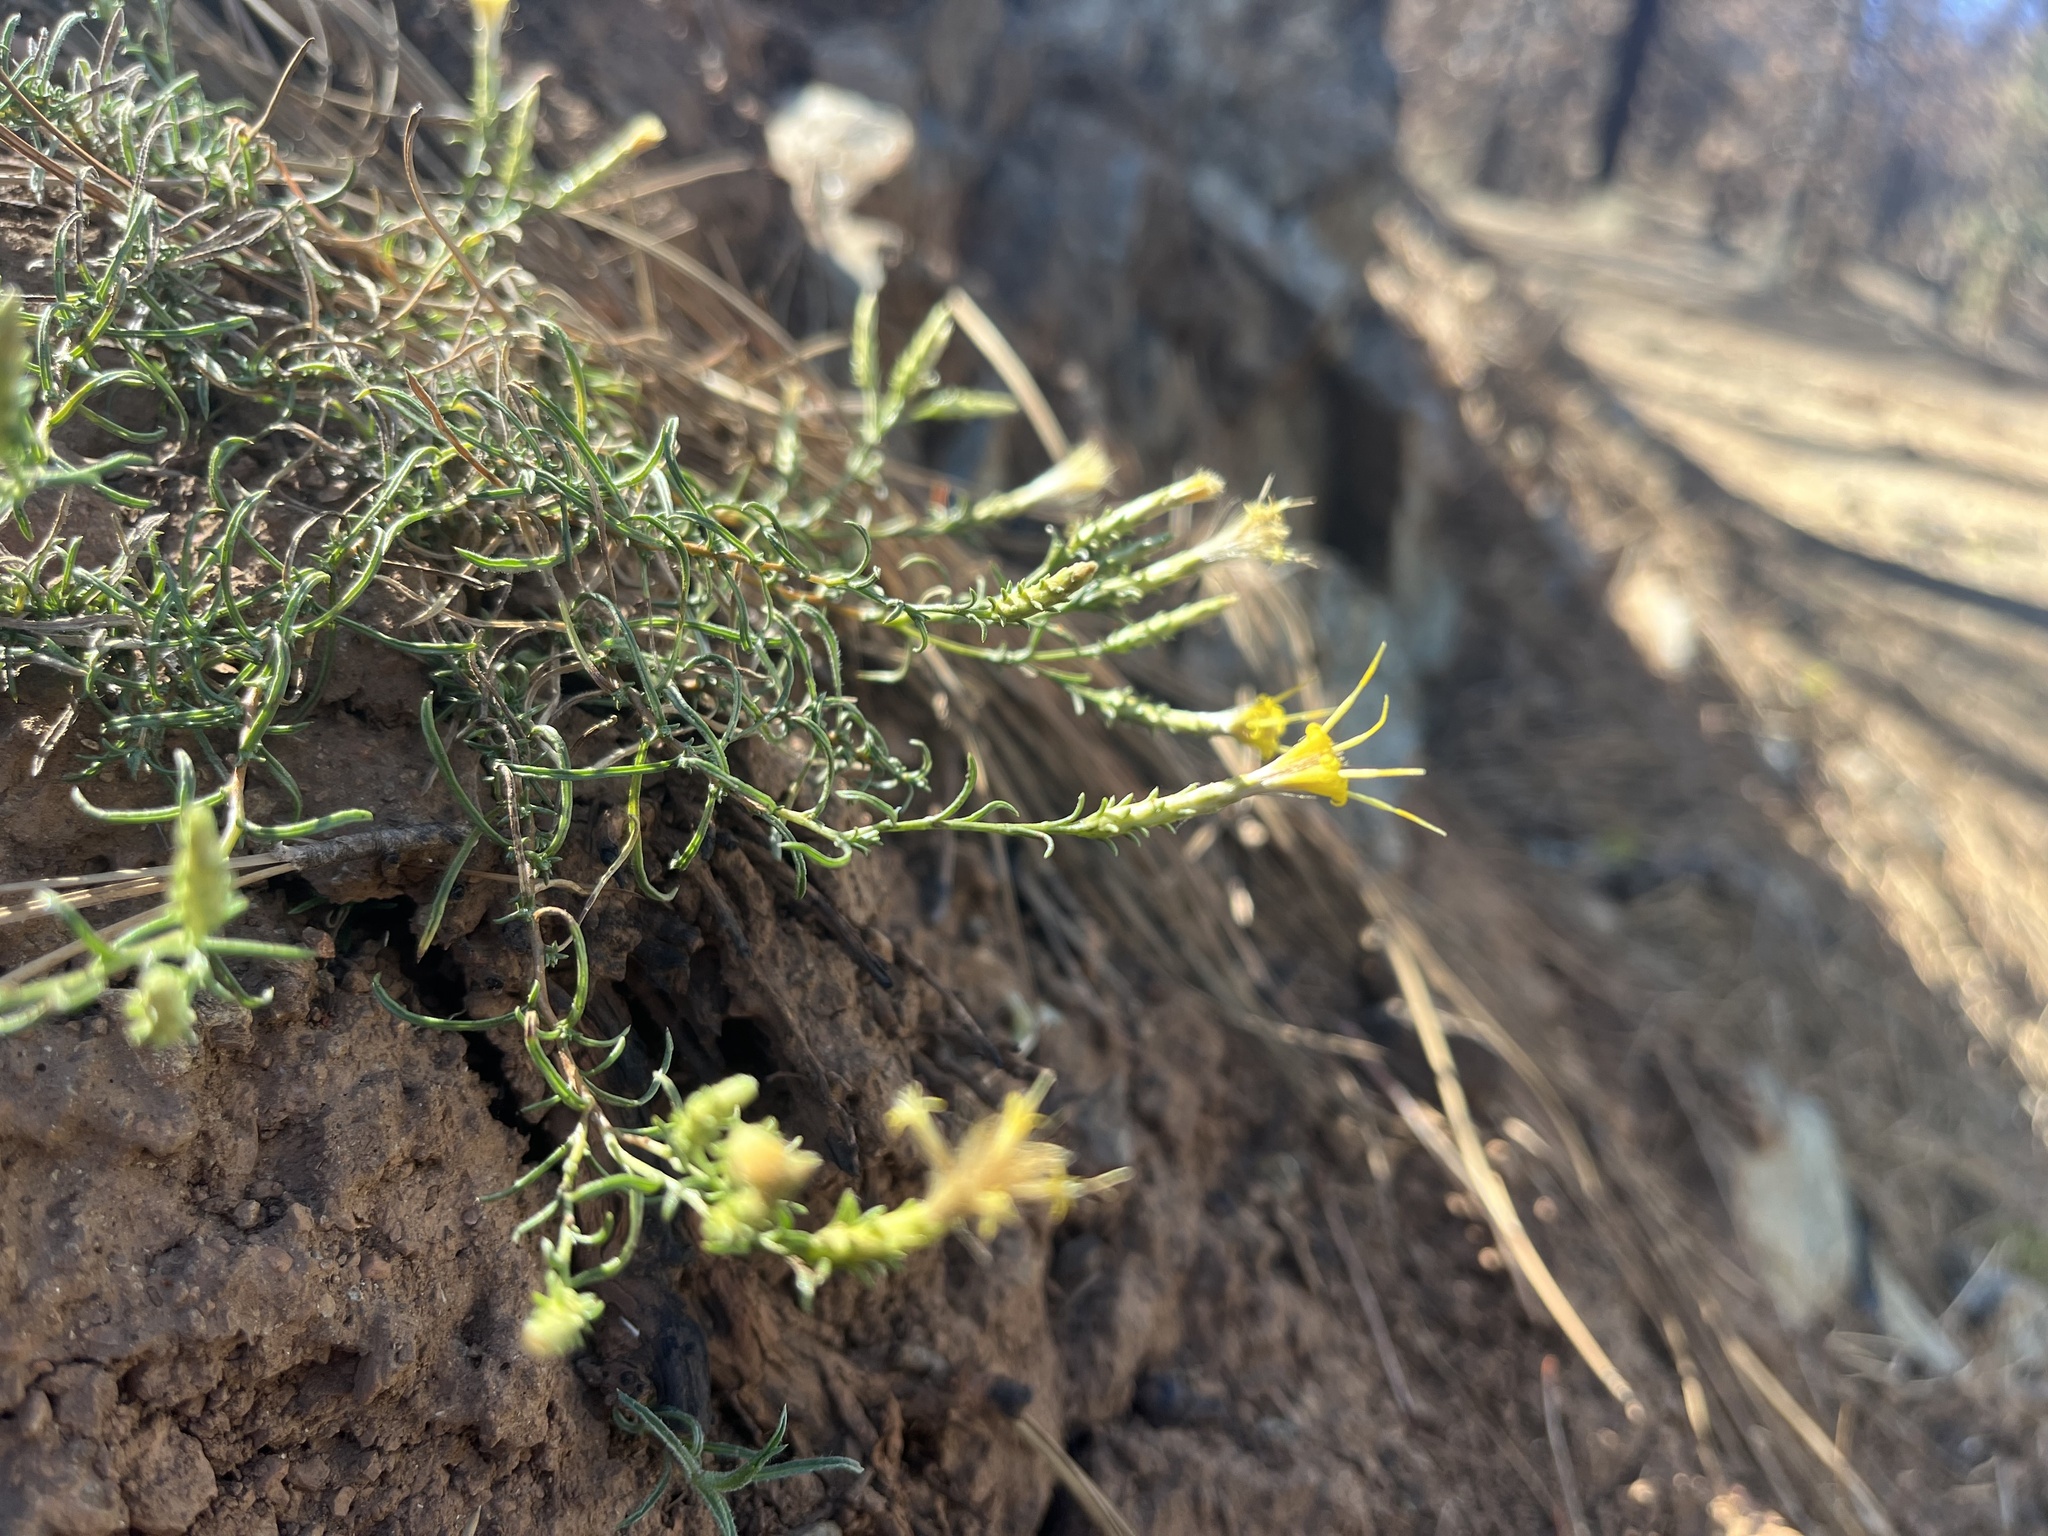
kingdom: Plantae
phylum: Tracheophyta
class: Magnoliopsida
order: Asterales
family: Asteraceae
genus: Ericameria
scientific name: Ericameria ophitidis
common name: Serpentine goldenbush
